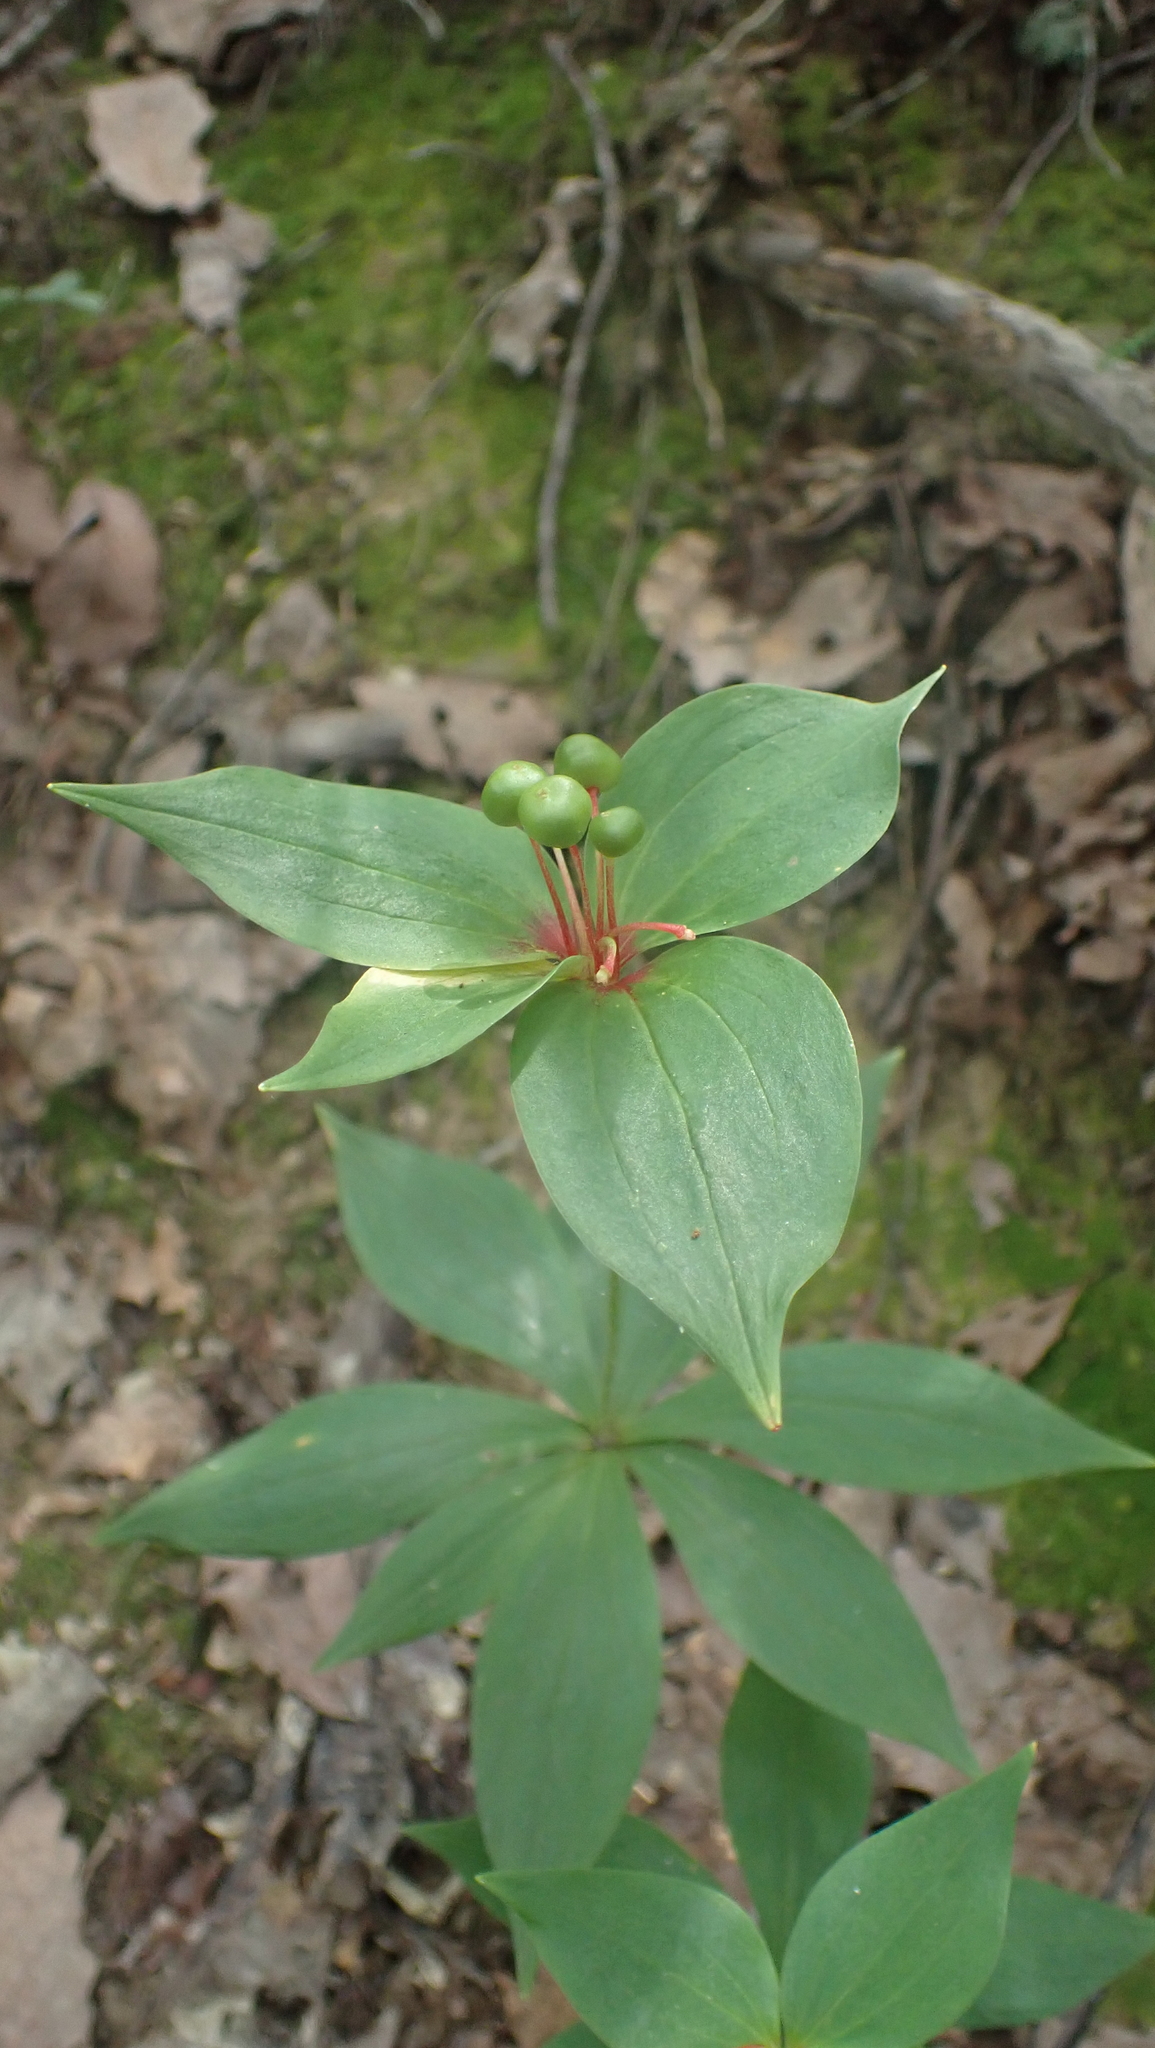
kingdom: Plantae
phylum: Tracheophyta
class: Liliopsida
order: Liliales
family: Liliaceae
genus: Medeola
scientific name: Medeola virginiana
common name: Indian cucumber-root
